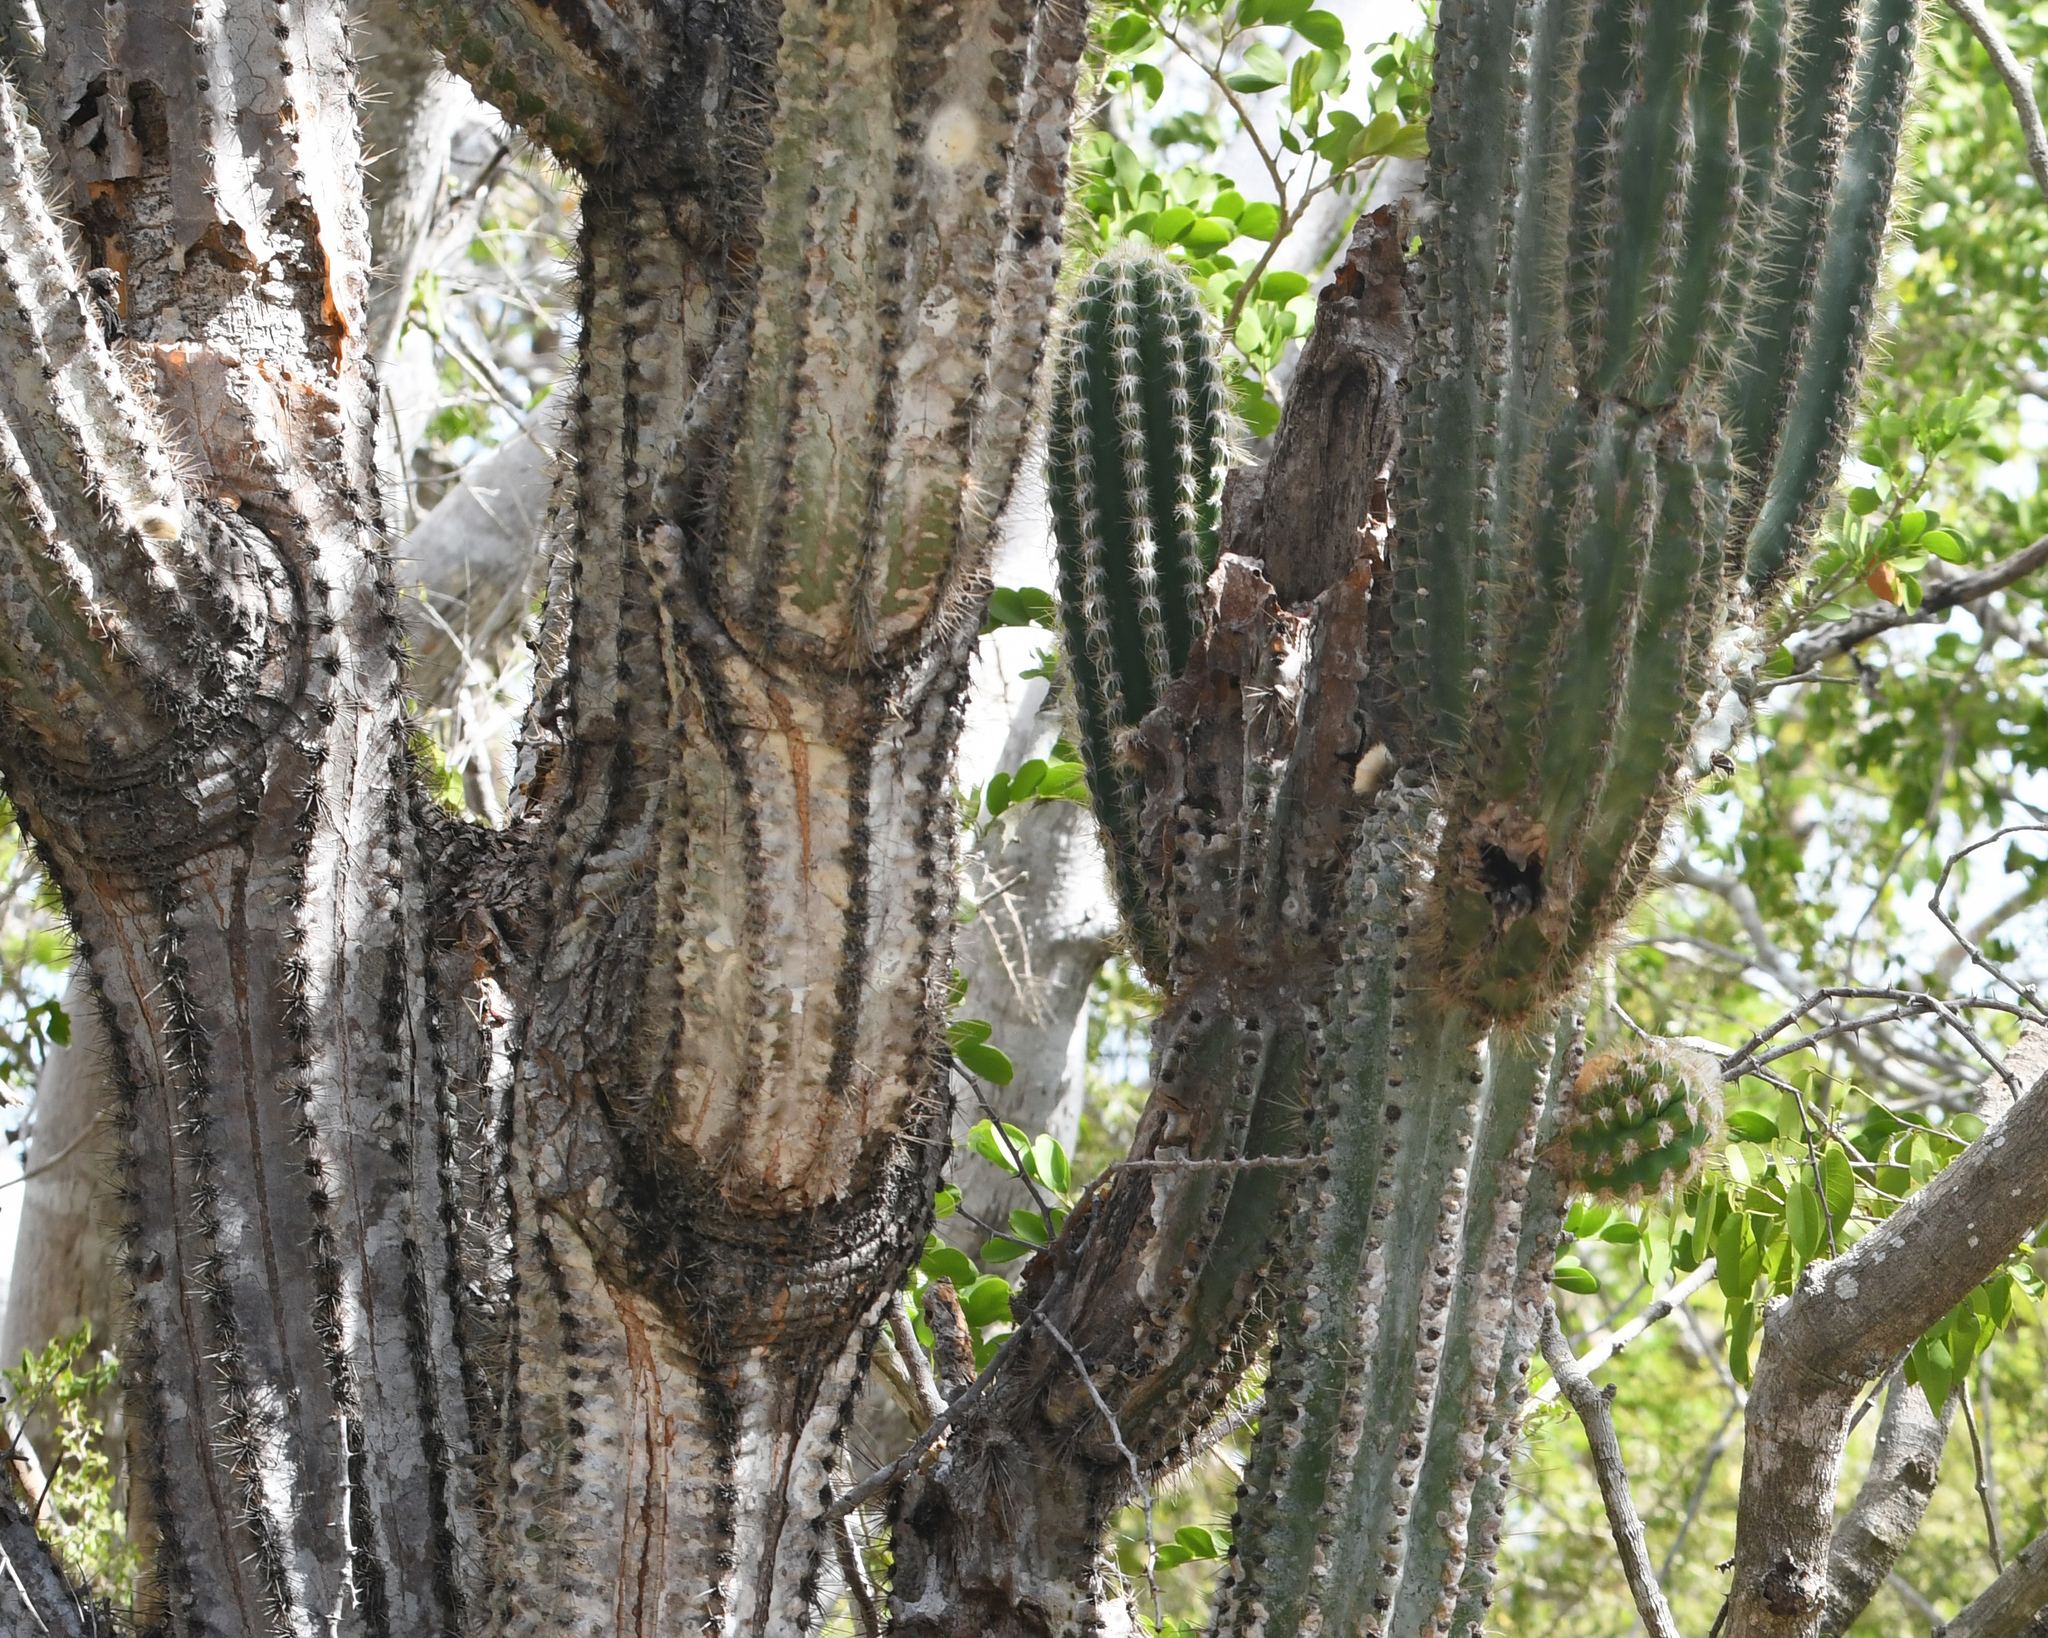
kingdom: Plantae
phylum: Tracheophyta
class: Magnoliopsida
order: Caryophyllales
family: Cactaceae
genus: Stenocereus
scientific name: Stenocereus heptagonus
